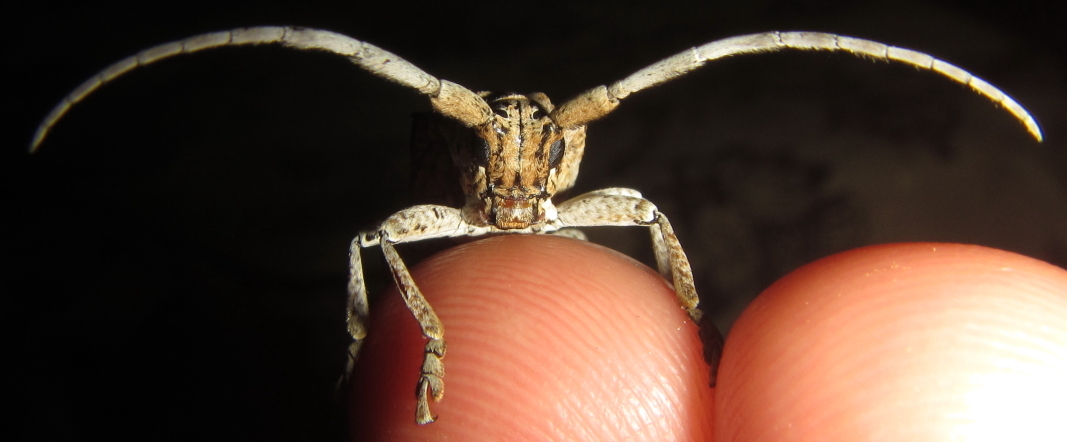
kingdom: Animalia
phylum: Arthropoda
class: Insecta
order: Coleoptera
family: Cerambycidae
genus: Crossotus
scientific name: Crossotus stypticus
